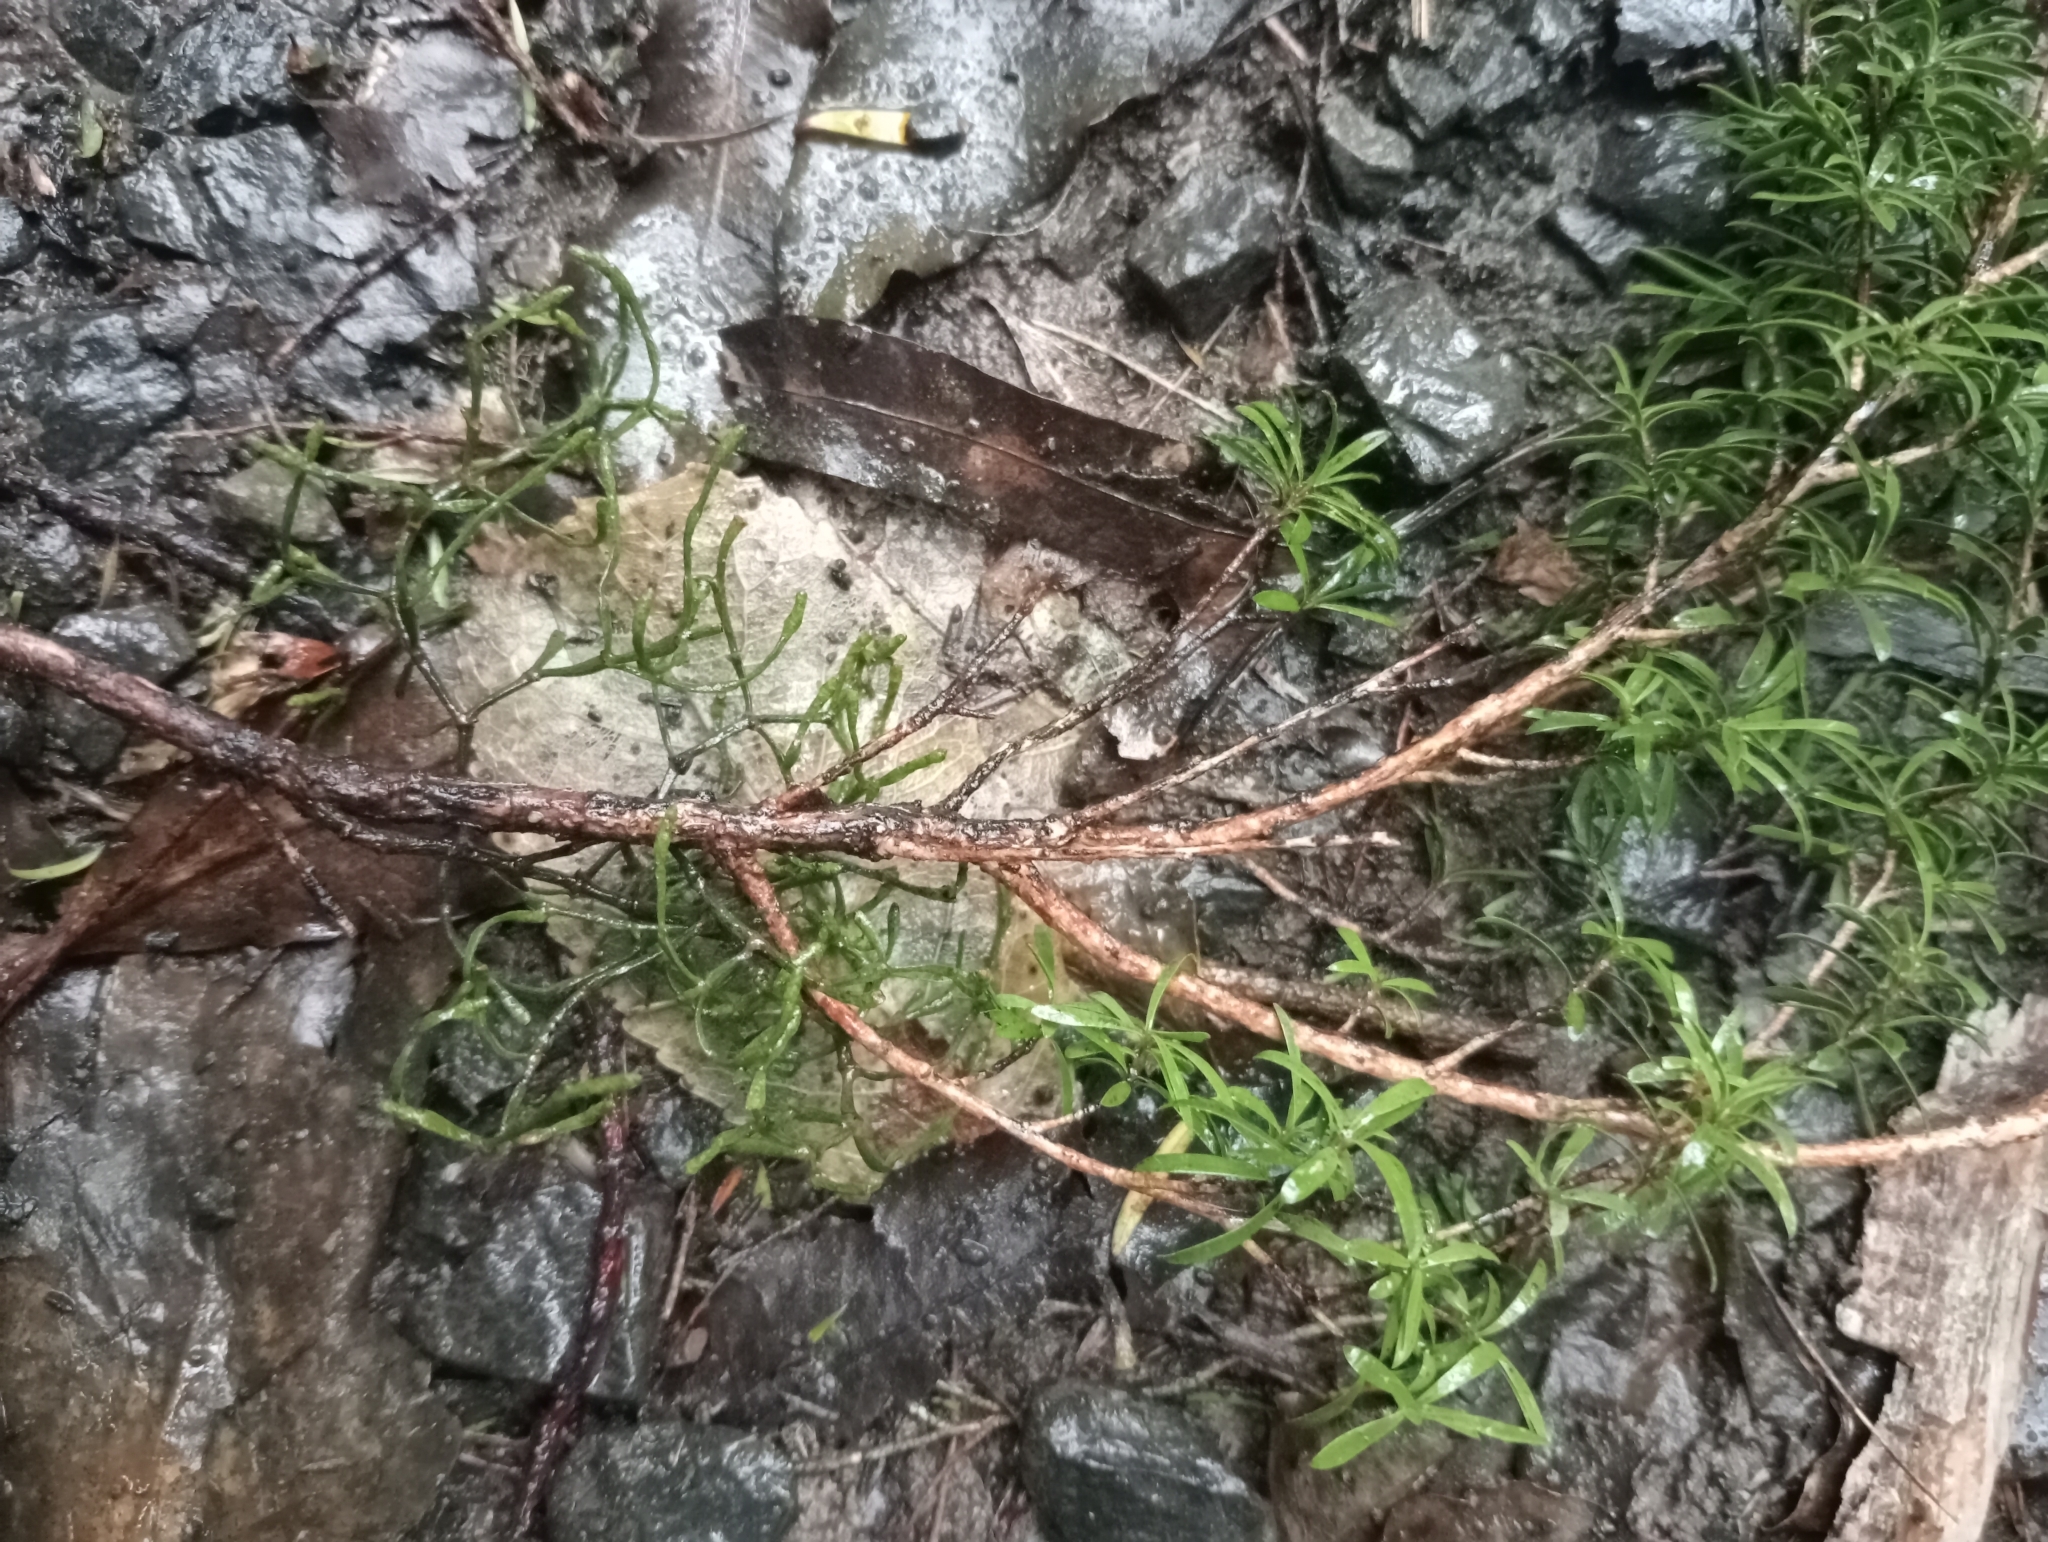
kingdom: Plantae
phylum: Tracheophyta
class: Magnoliopsida
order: Santalales
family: Viscaceae
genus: Korthalsella
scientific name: Korthalsella salicornioides
